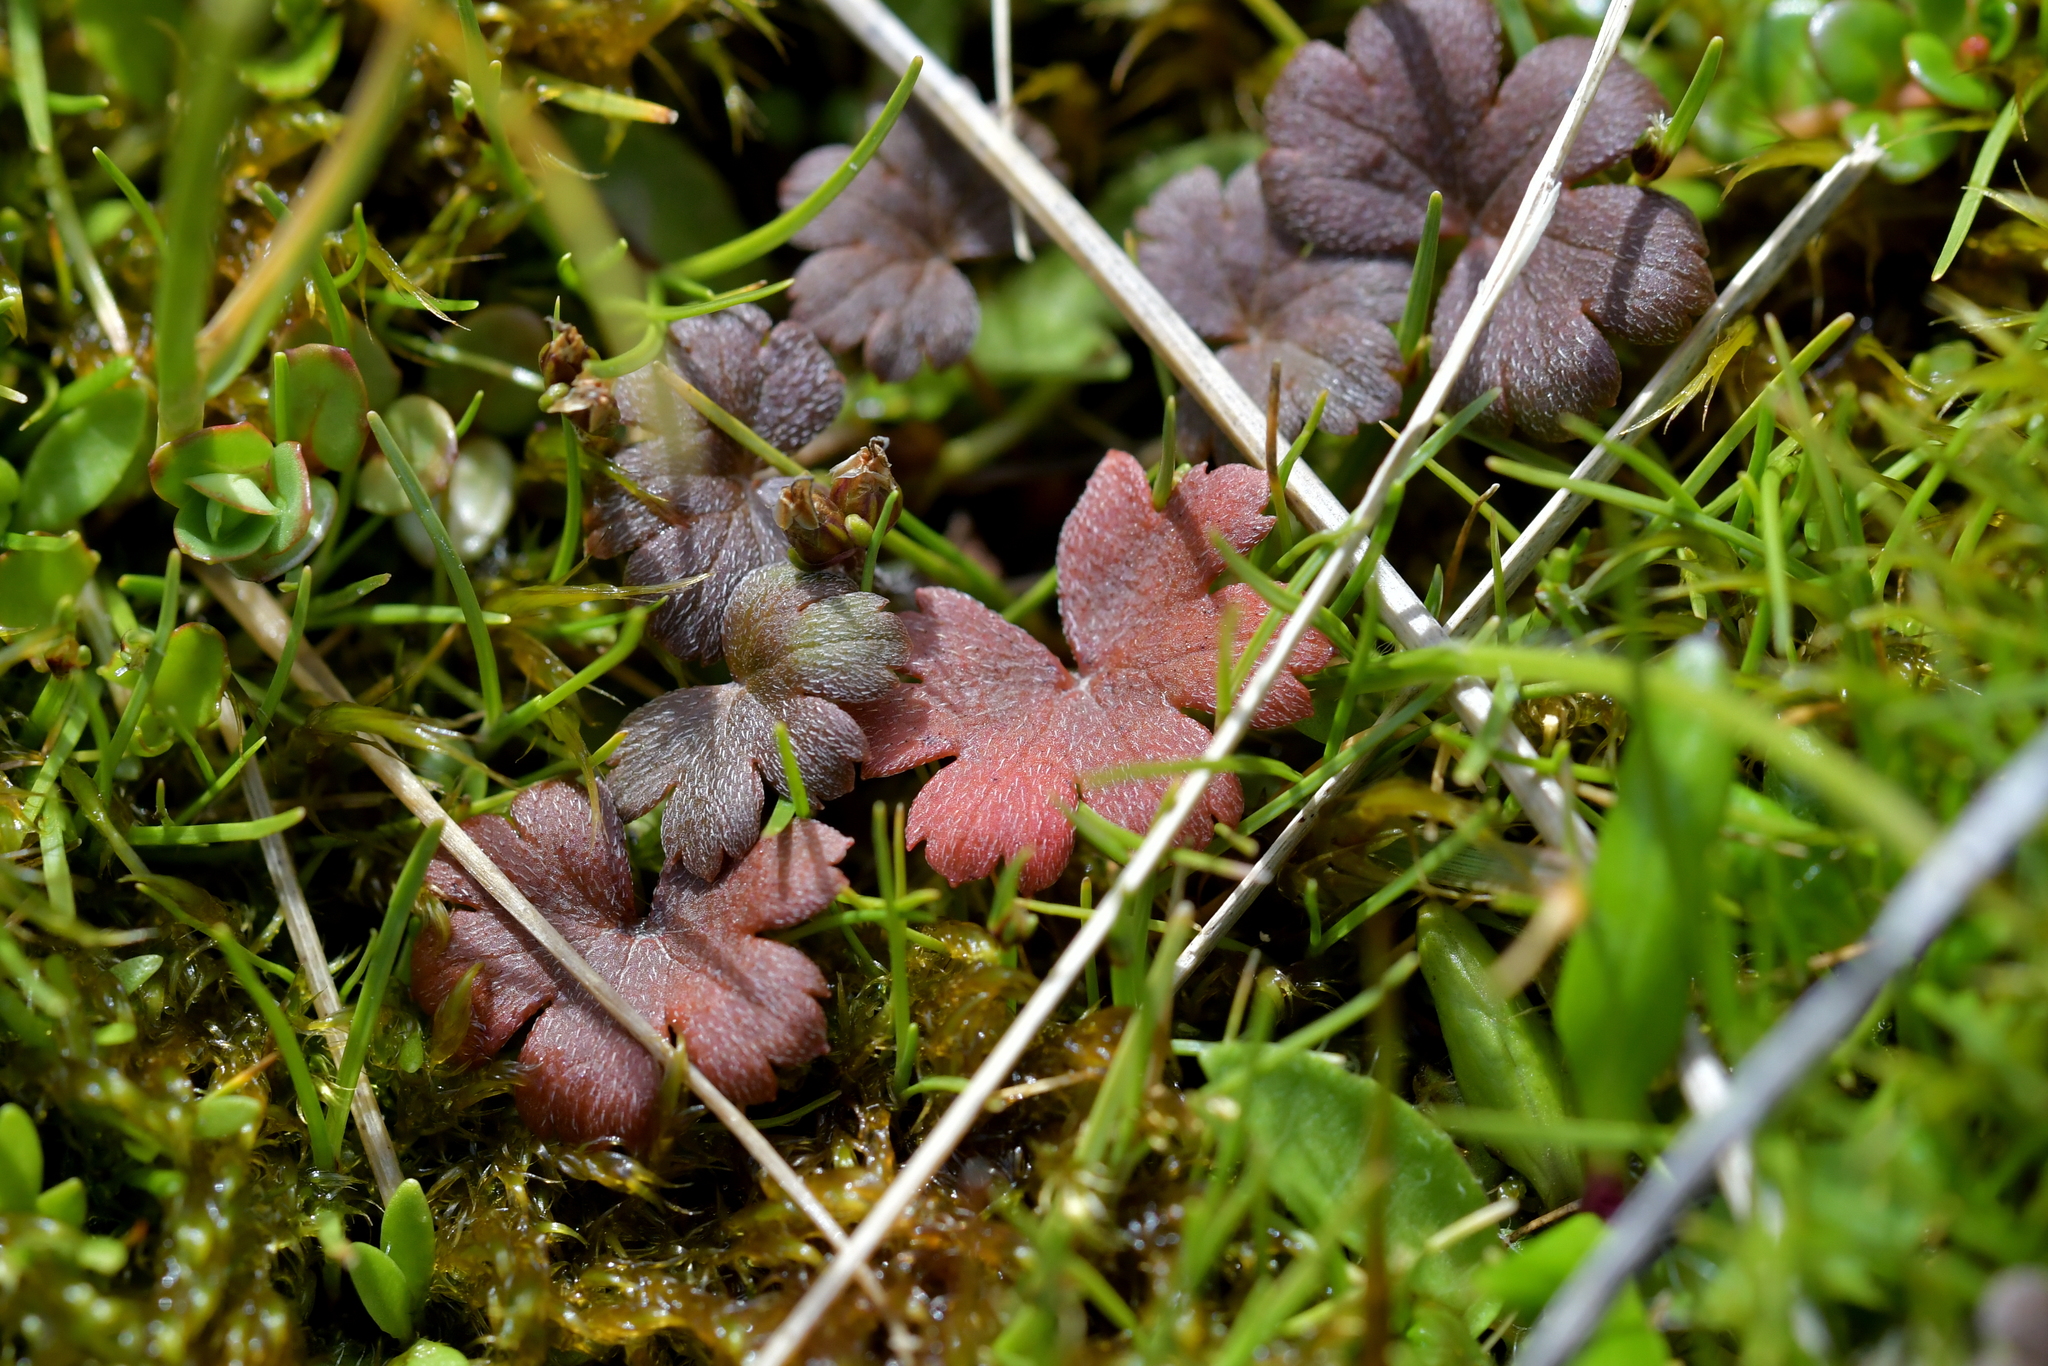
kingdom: Plantae
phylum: Tracheophyta
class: Magnoliopsida
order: Geraniales
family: Geraniaceae
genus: Geranium
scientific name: Geranium brevicaule
